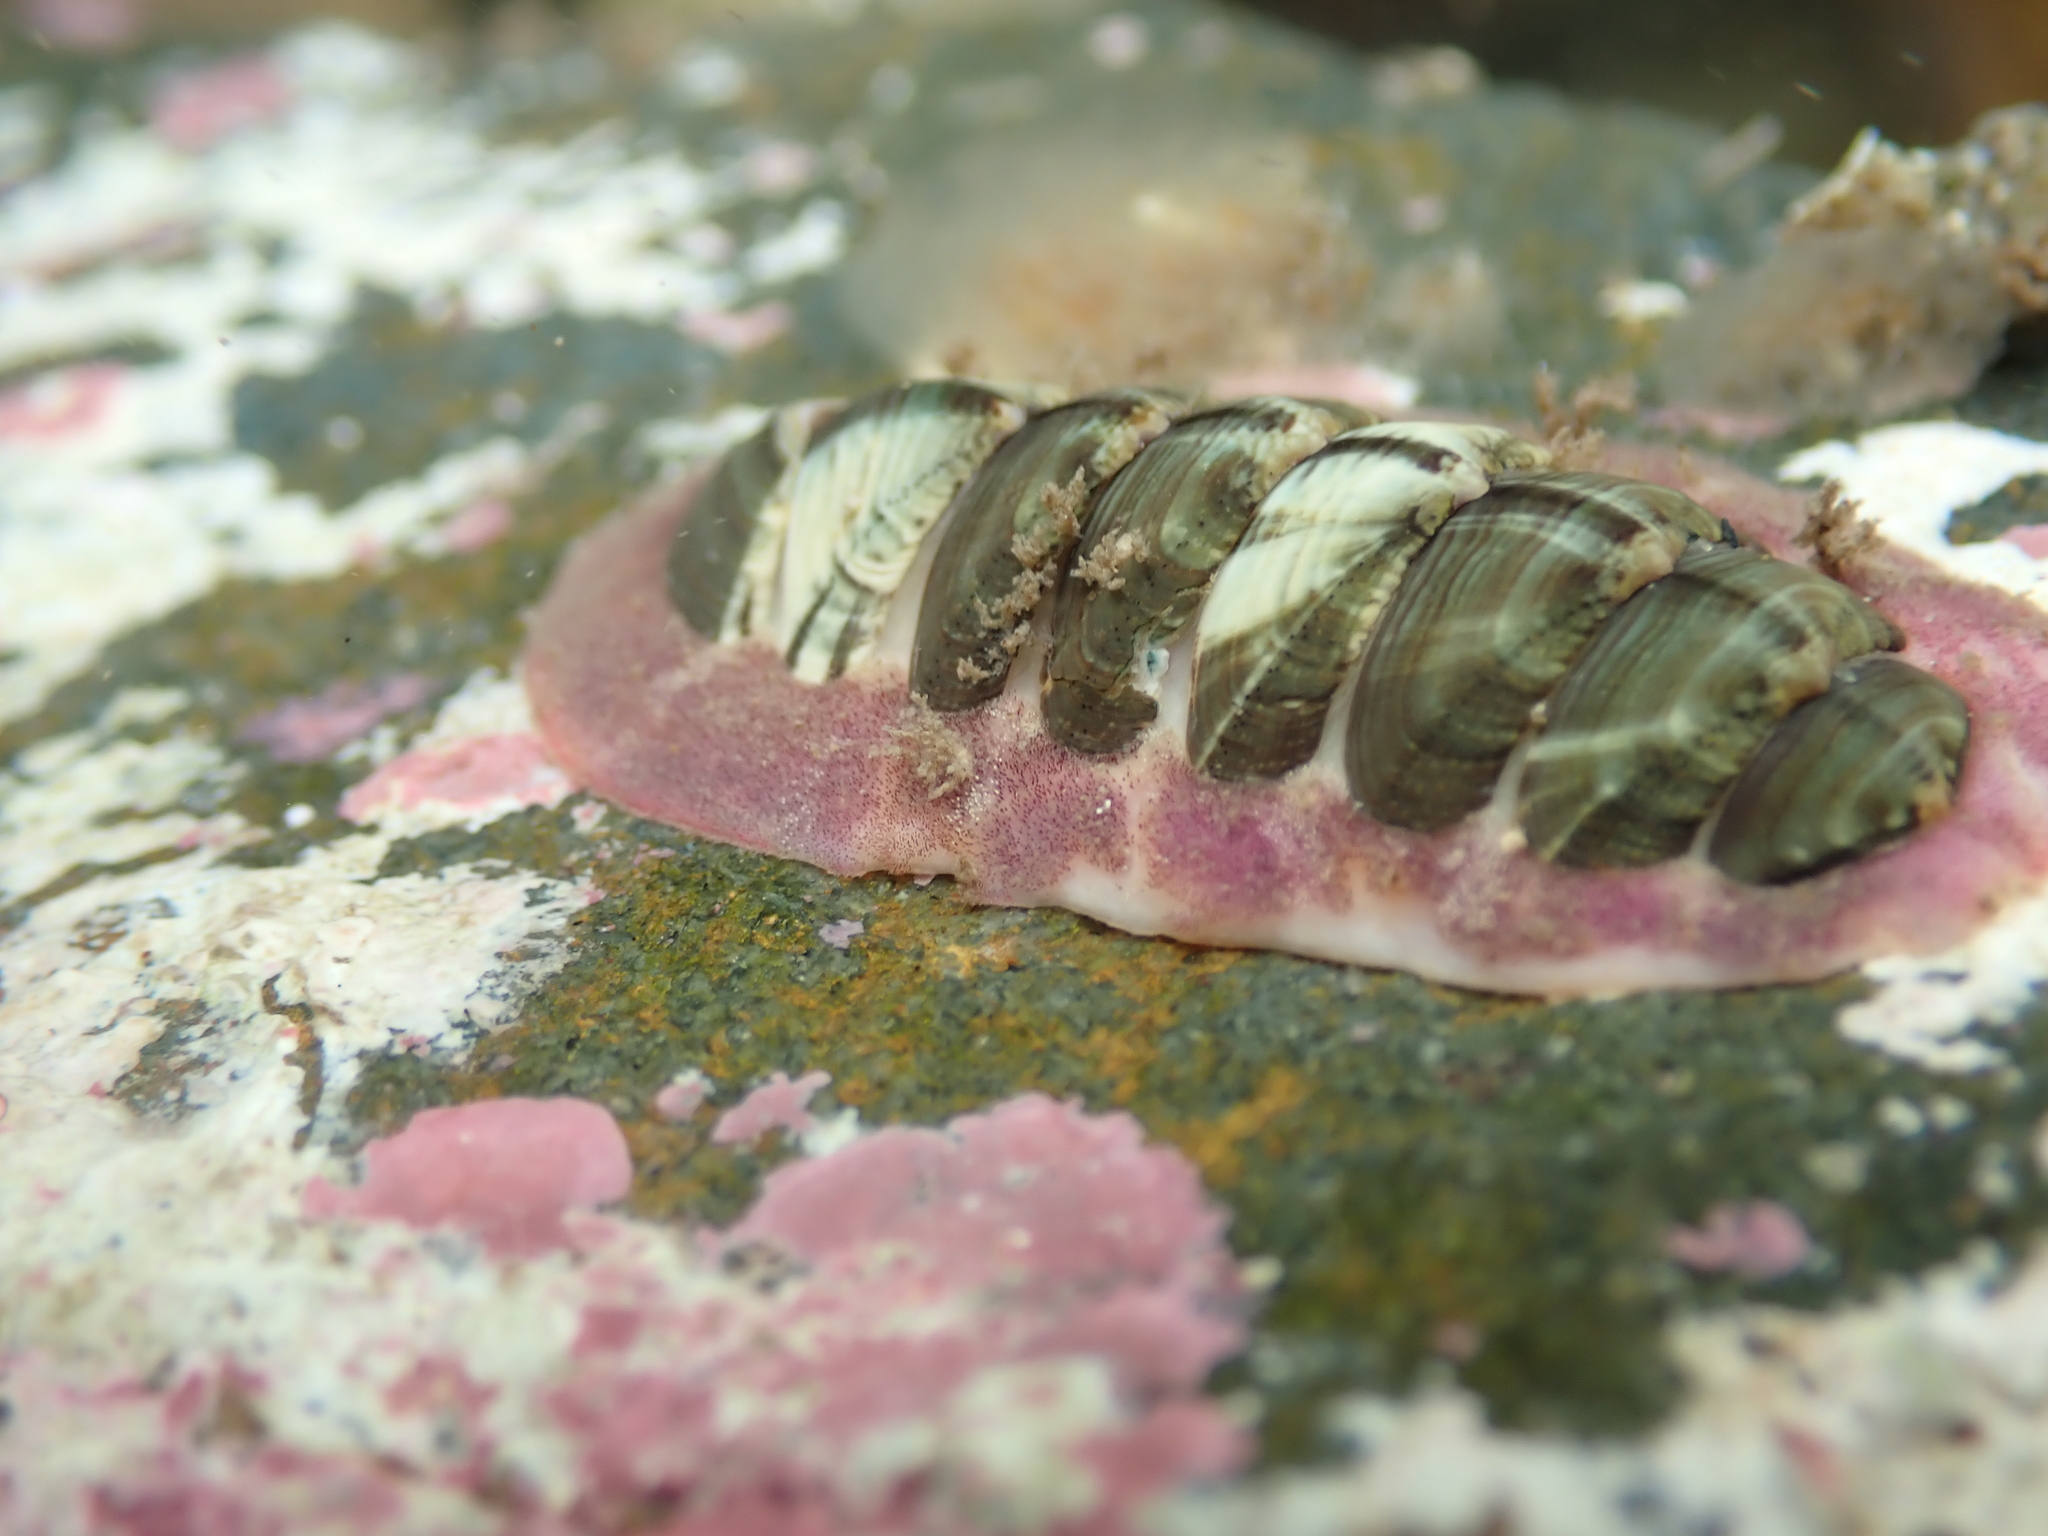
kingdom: Animalia
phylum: Mollusca
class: Polyplacophora
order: Chitonida
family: Chitonidae
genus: Onithochiton
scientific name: Onithochiton neglectus
